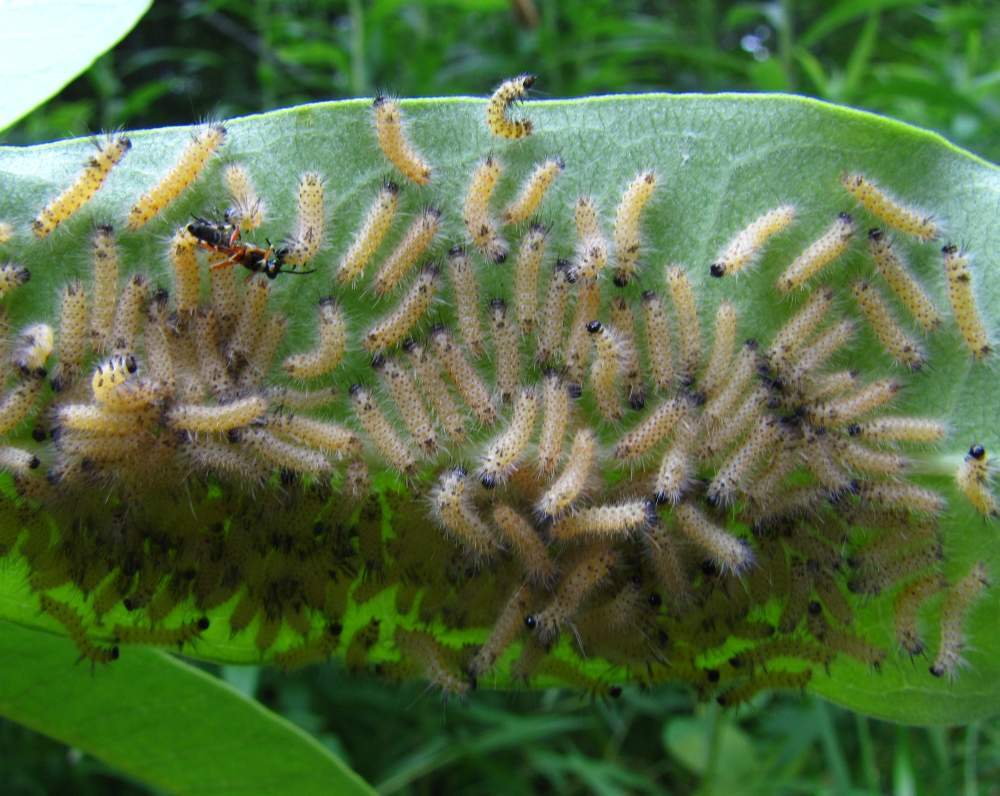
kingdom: Animalia
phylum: Arthropoda
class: Insecta
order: Lepidoptera
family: Erebidae
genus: Euchaetes
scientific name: Euchaetes egle
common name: Milkweed tussock moth
